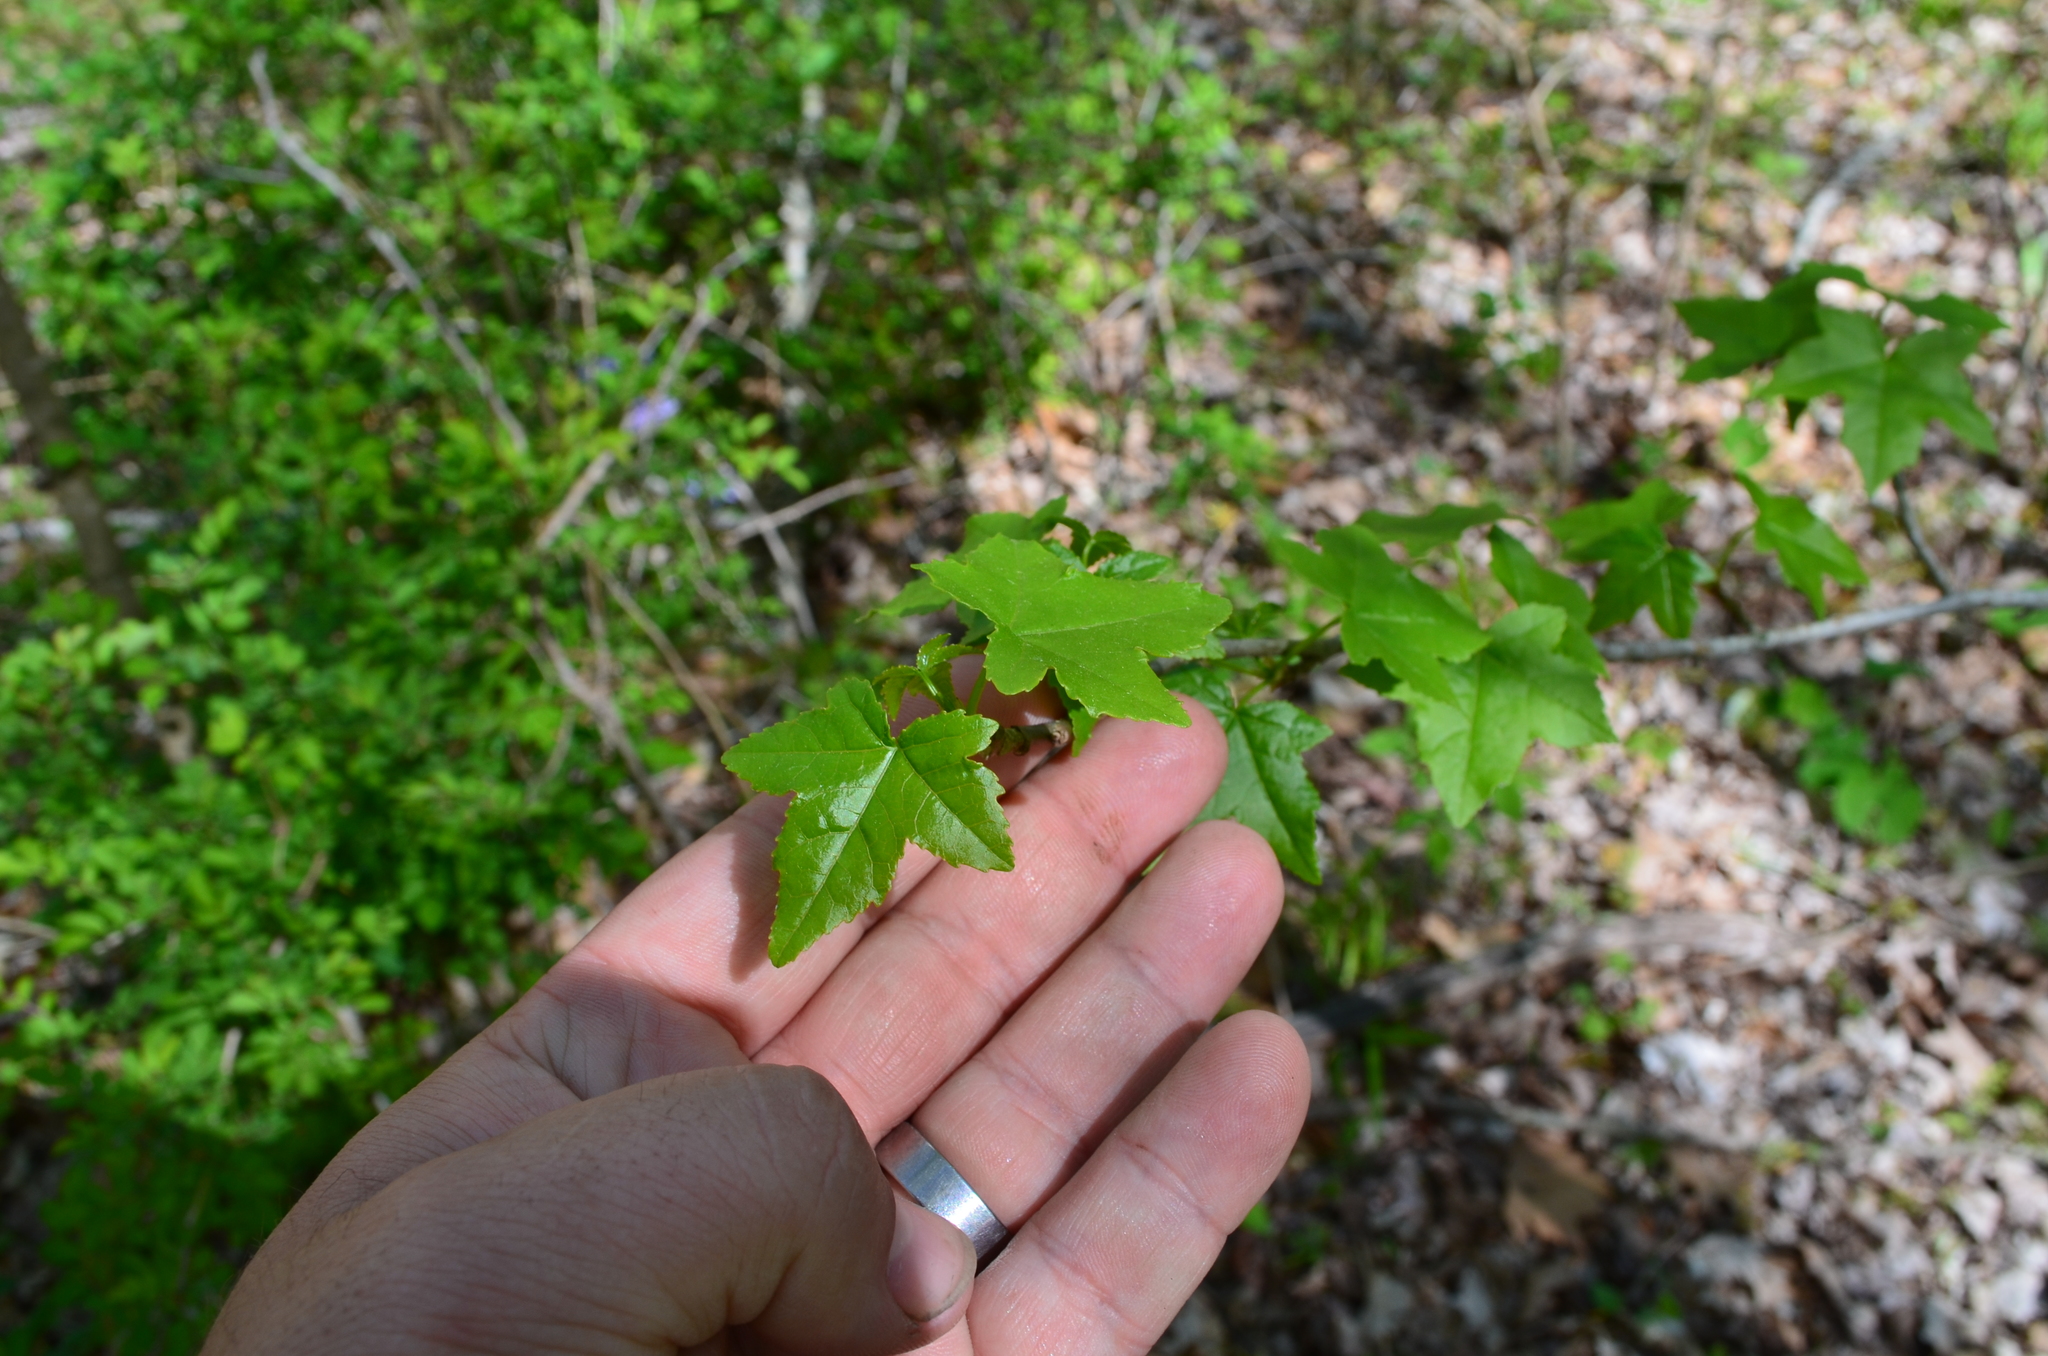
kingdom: Plantae
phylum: Tracheophyta
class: Magnoliopsida
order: Saxifragales
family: Altingiaceae
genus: Liquidambar
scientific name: Liquidambar styraciflua
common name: Sweet gum
